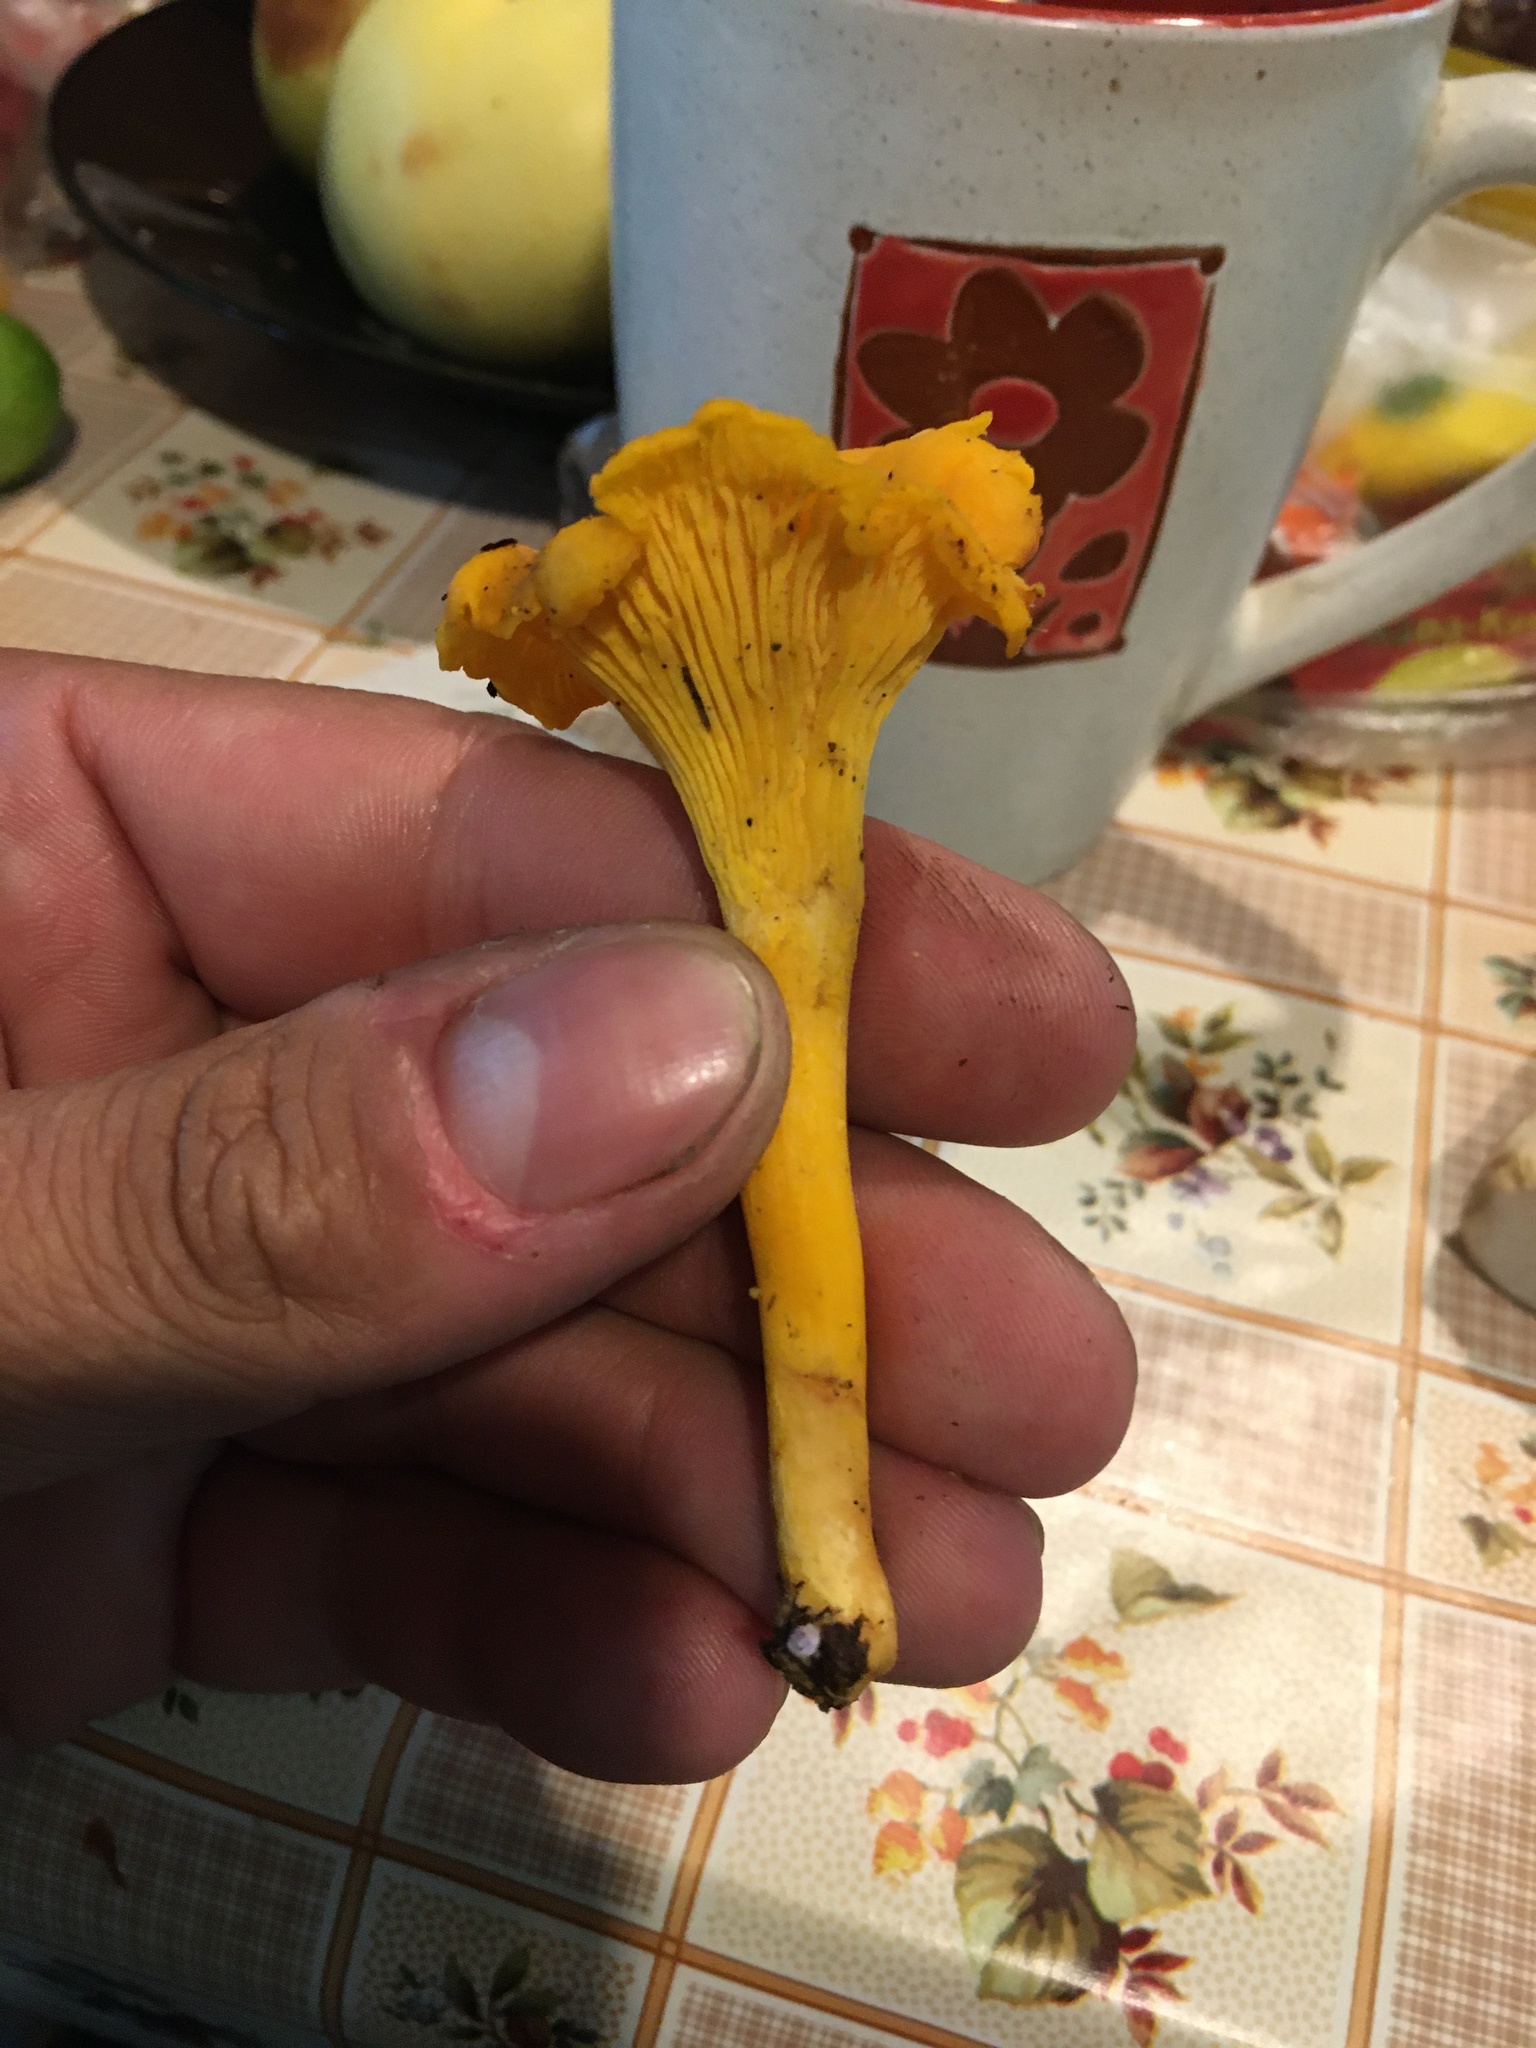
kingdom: Fungi
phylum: Basidiomycota
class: Agaricomycetes
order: Cantharellales
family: Hydnaceae
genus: Cantharellus
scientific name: Cantharellus cibarius
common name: Chanterelle
